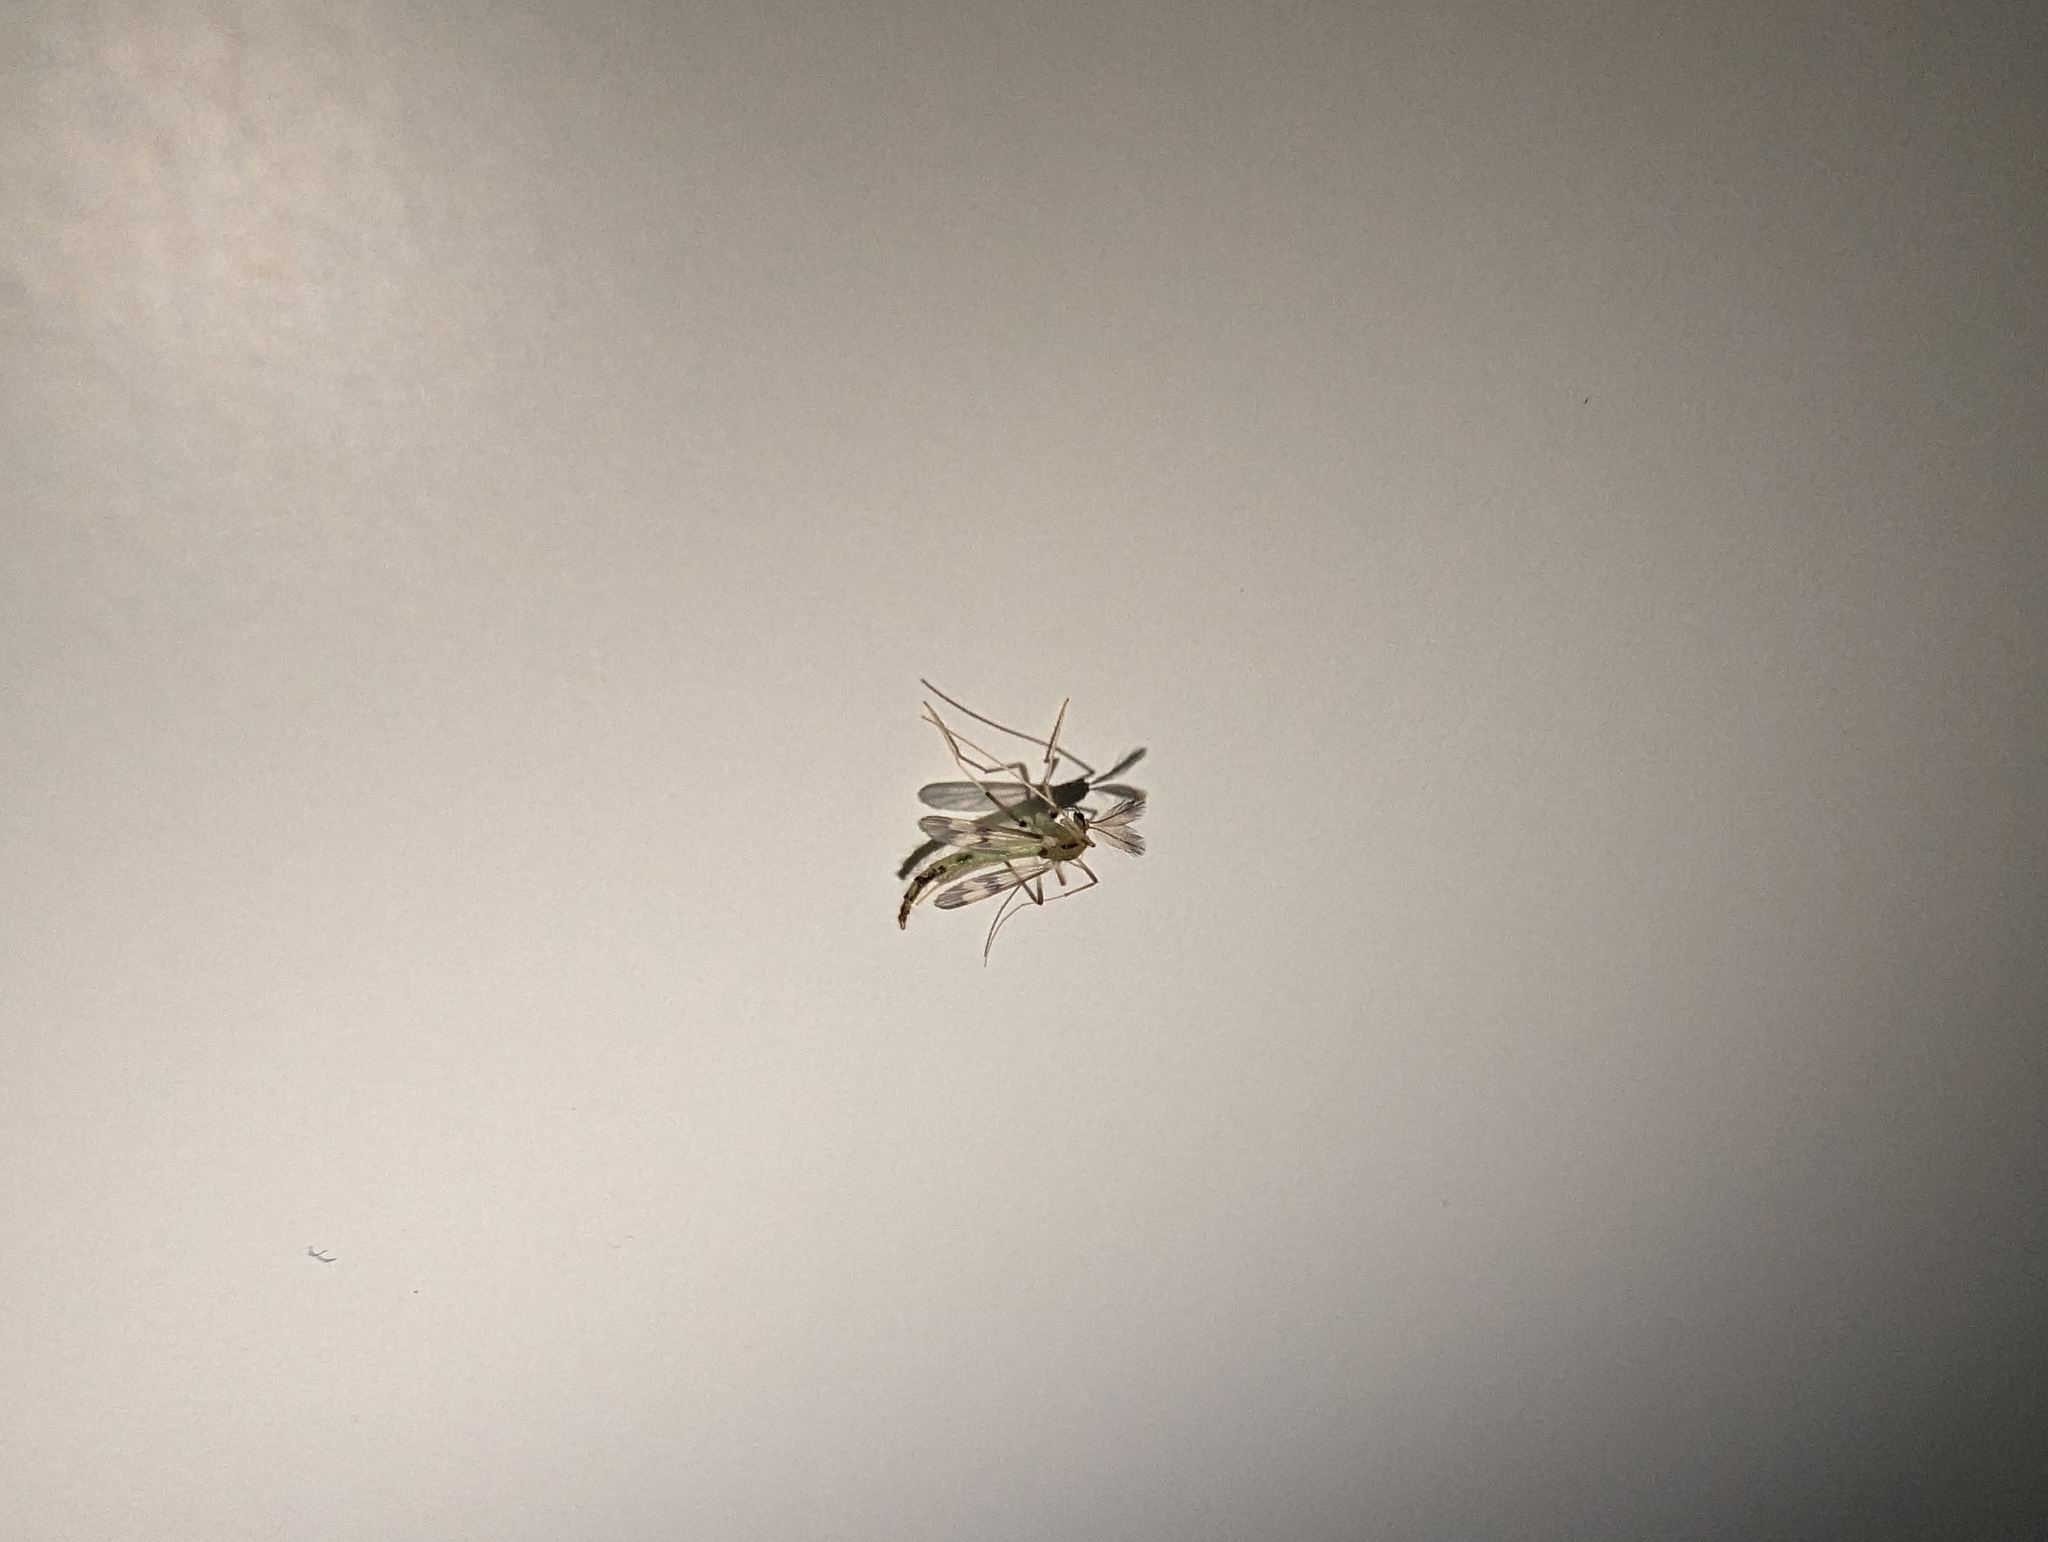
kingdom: Animalia
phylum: Arthropoda
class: Insecta
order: Diptera
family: Chironomidae
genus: Stenochironomus
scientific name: Stenochironomus hilaris
